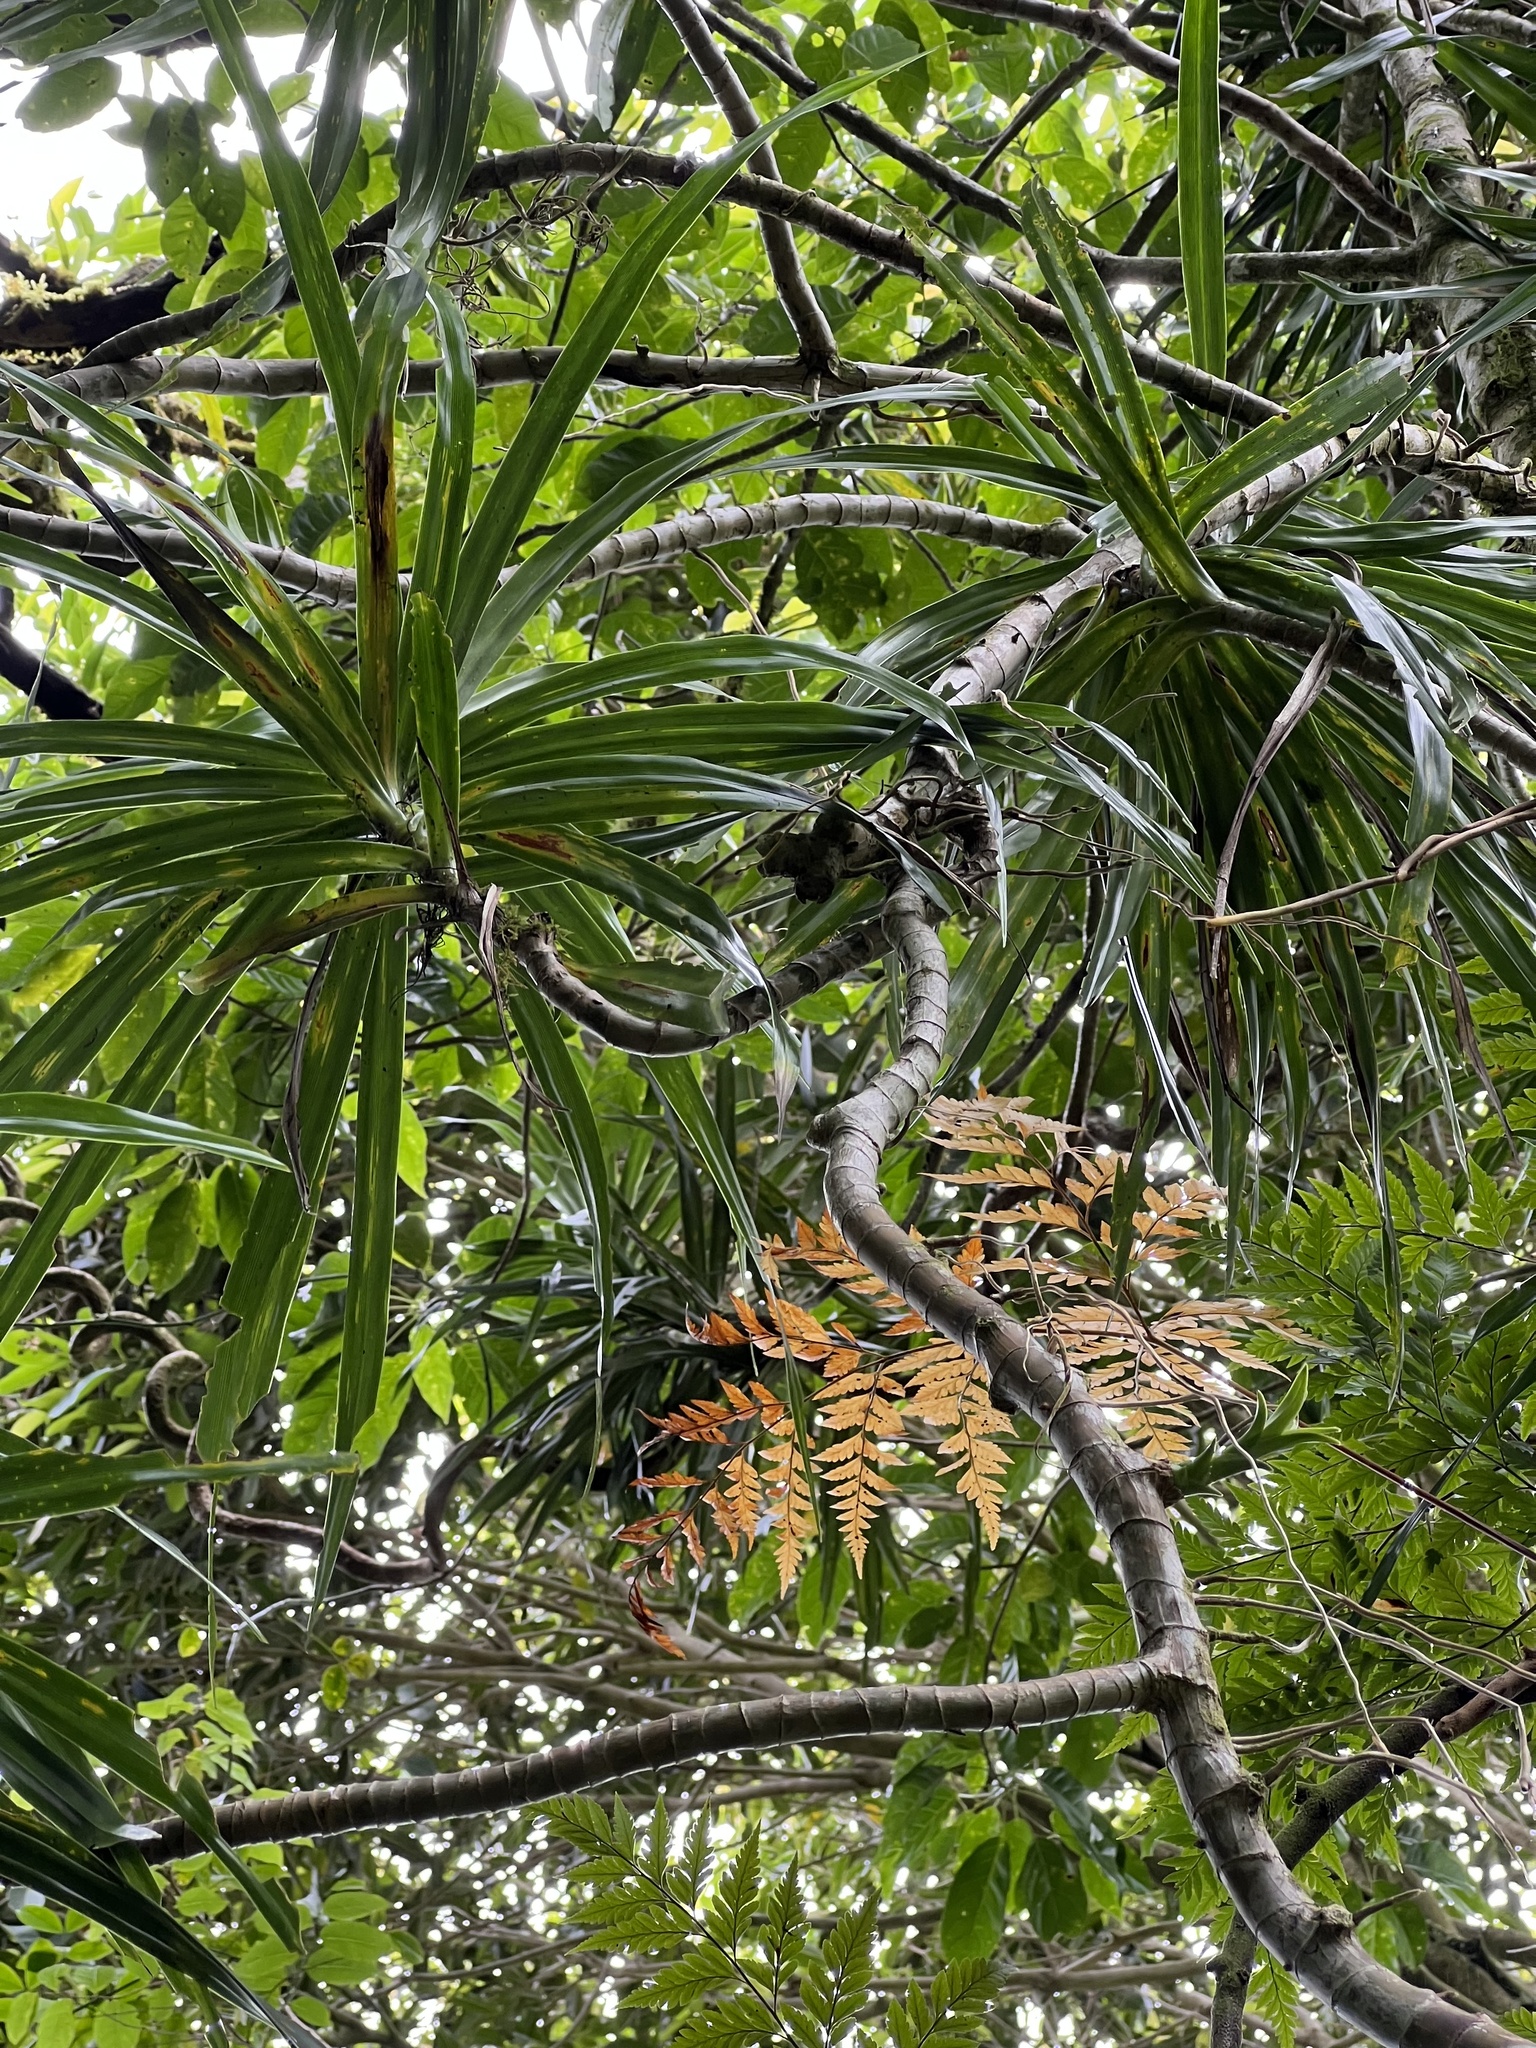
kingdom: Plantae
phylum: Tracheophyta
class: Liliopsida
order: Pandanales
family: Pandanaceae
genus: Freycinetia
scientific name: Freycinetia arborea
